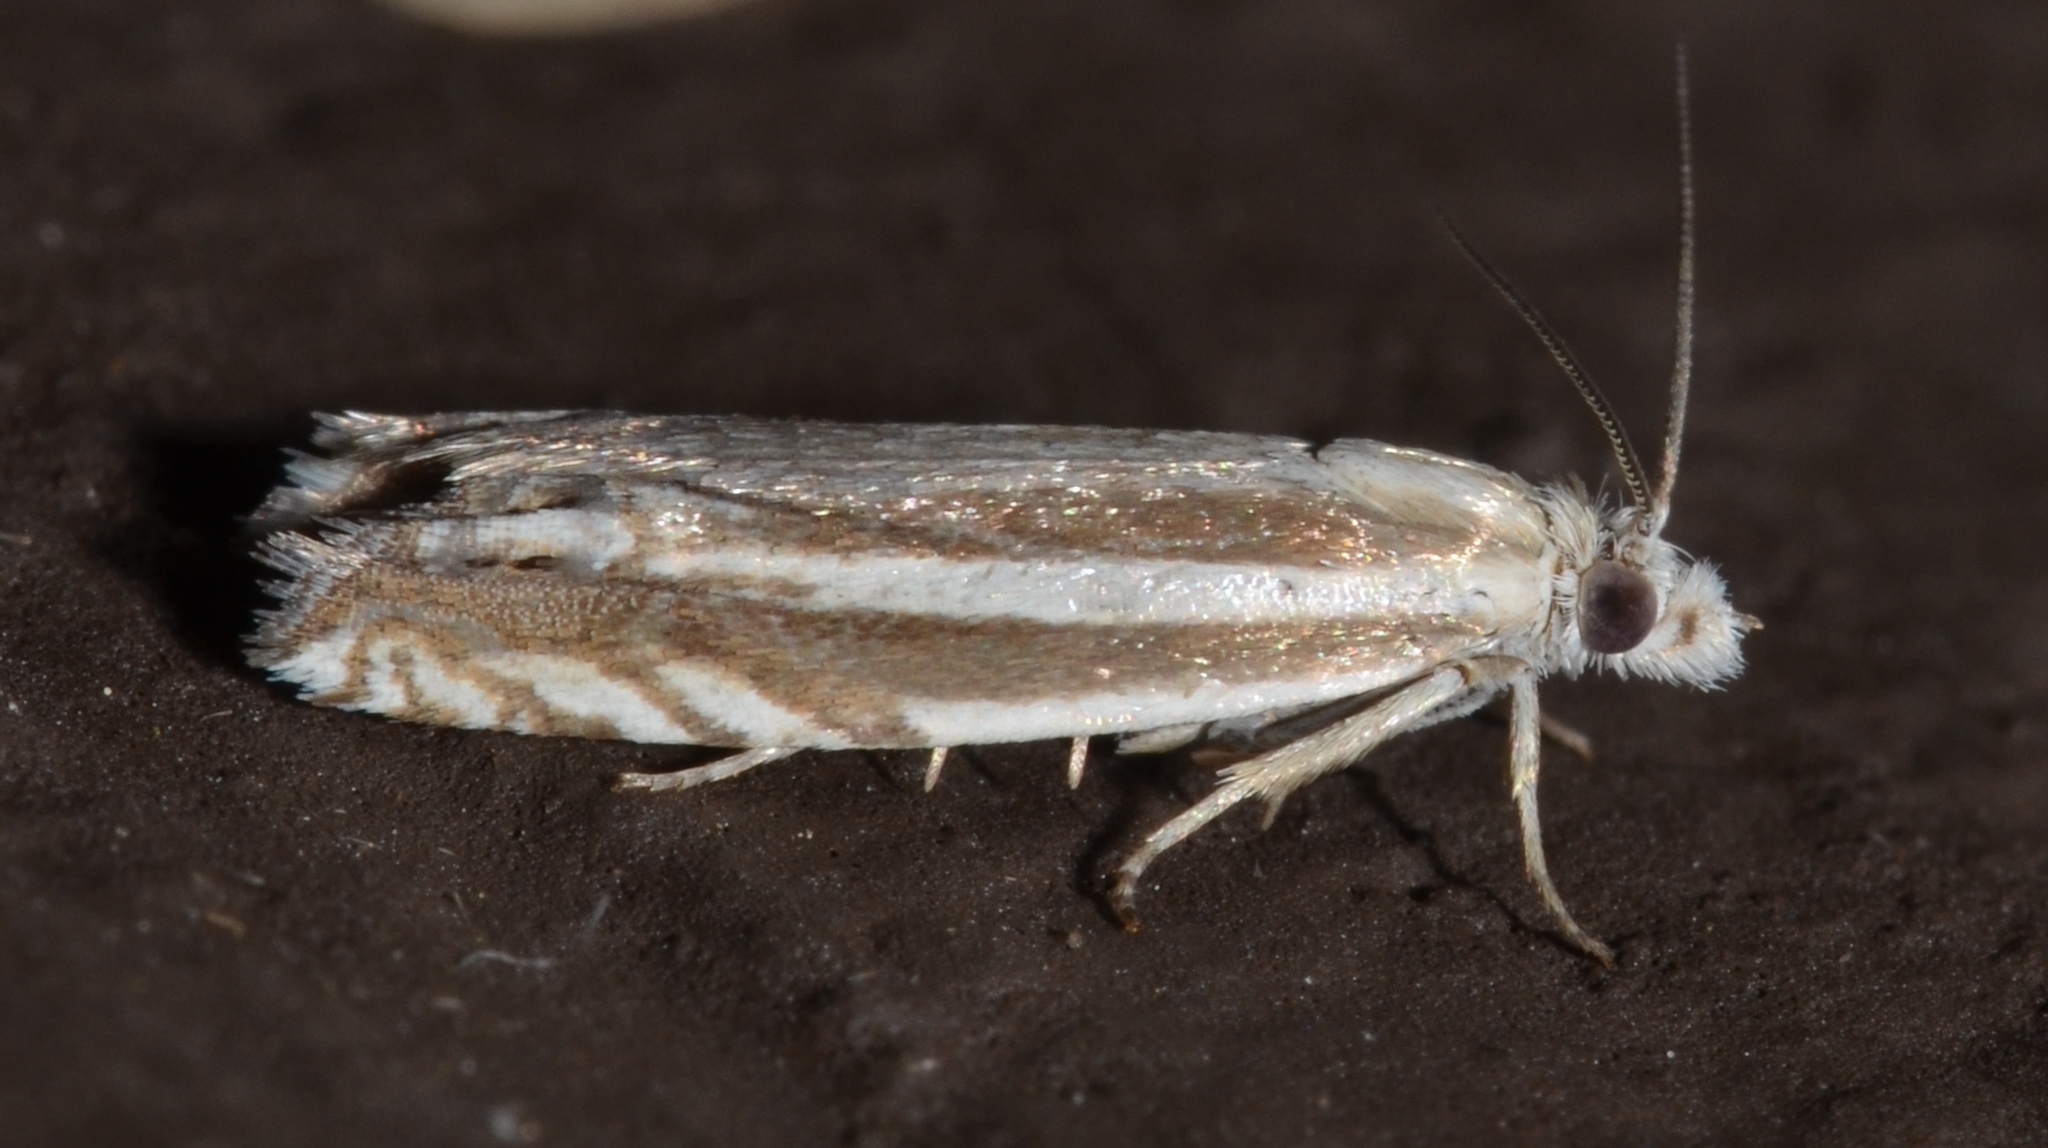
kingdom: Animalia
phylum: Arthropoda
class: Insecta
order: Lepidoptera
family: Tortricidae
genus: Eucosma
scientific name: Eucosma striatana
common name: Striated eucosma moth
